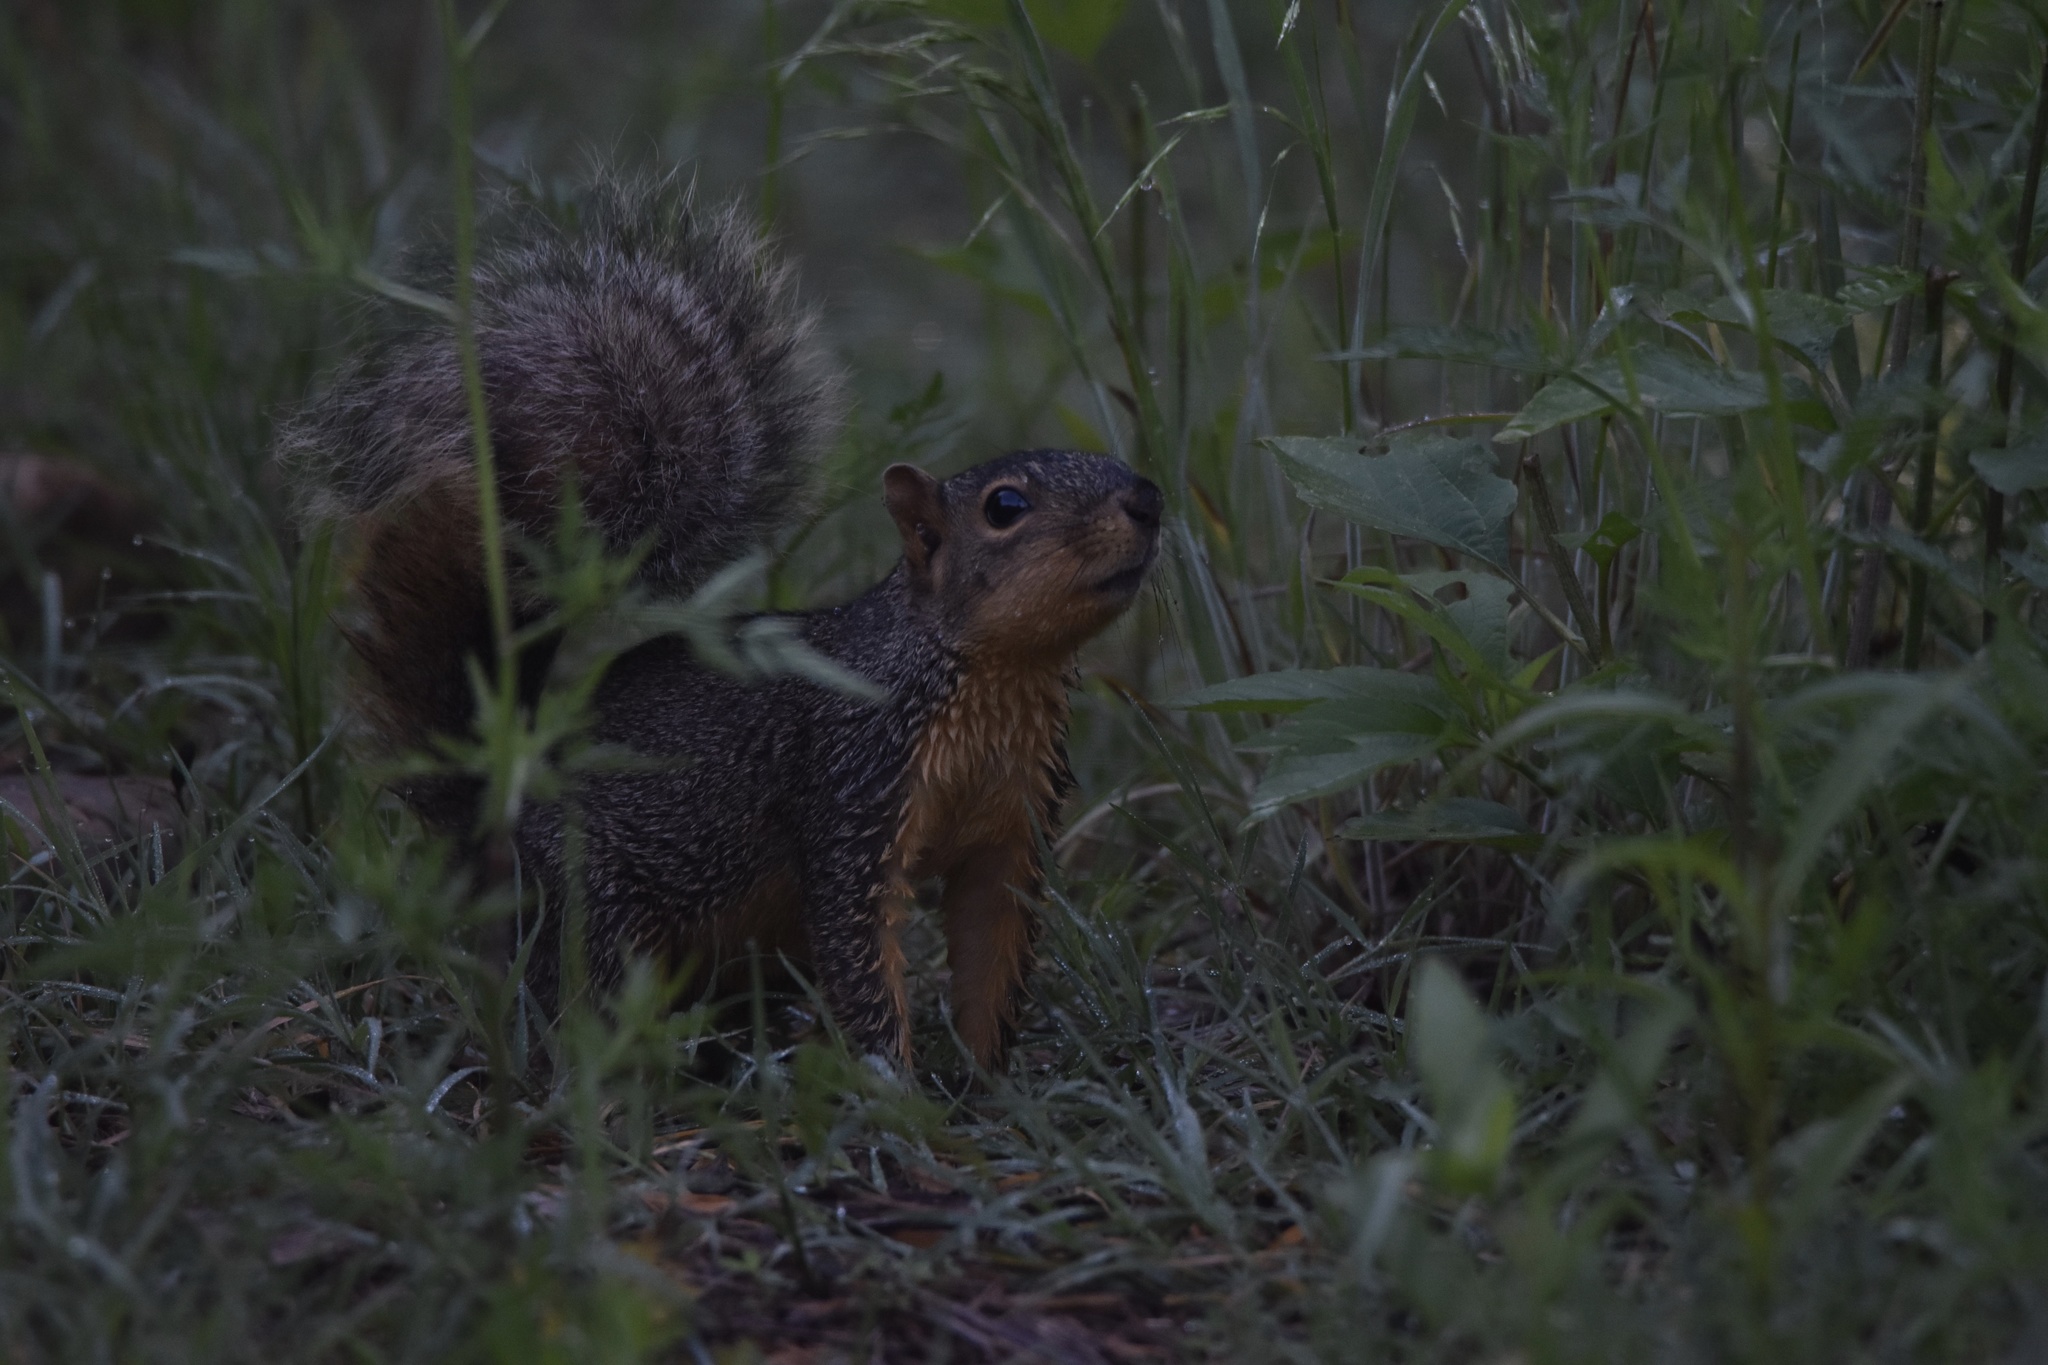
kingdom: Animalia
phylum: Chordata
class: Mammalia
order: Rodentia
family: Sciuridae
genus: Sciurus
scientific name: Sciurus niger
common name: Fox squirrel
